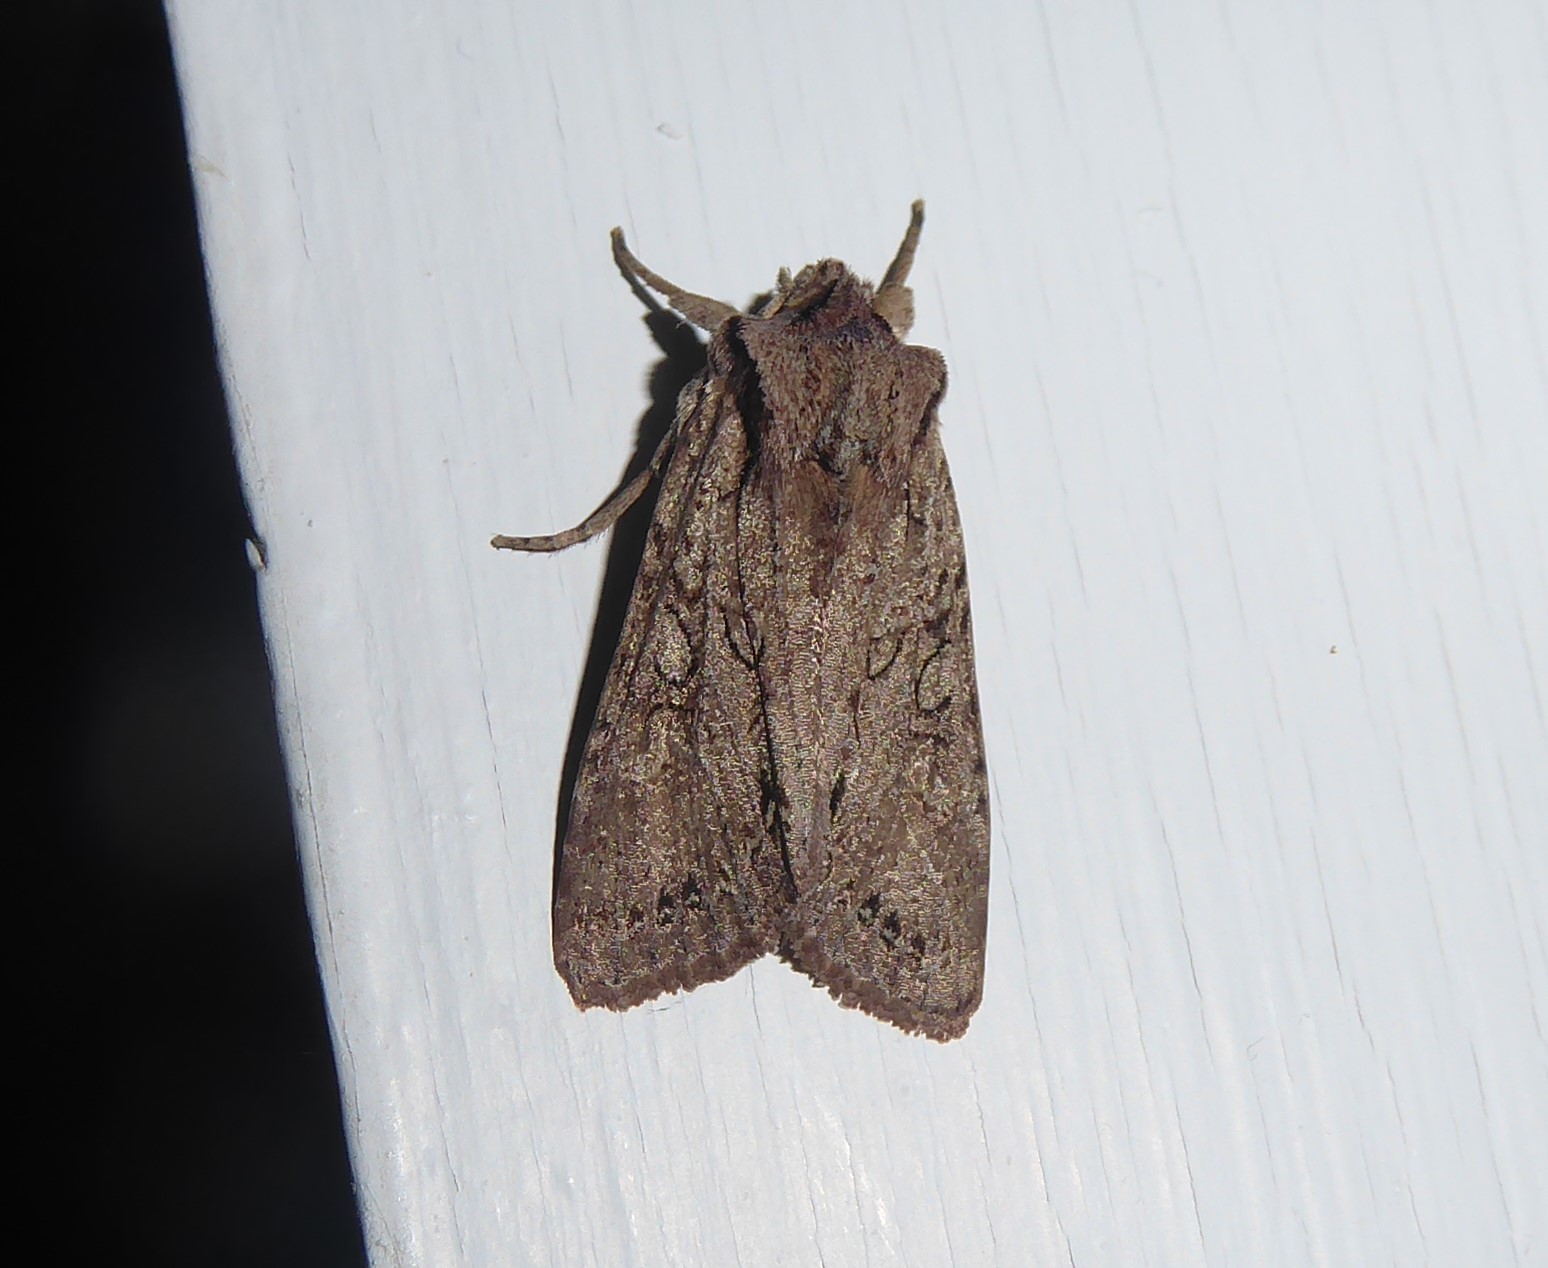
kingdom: Animalia
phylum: Arthropoda
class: Insecta
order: Lepidoptera
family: Noctuidae
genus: Ichneutica
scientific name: Ichneutica
